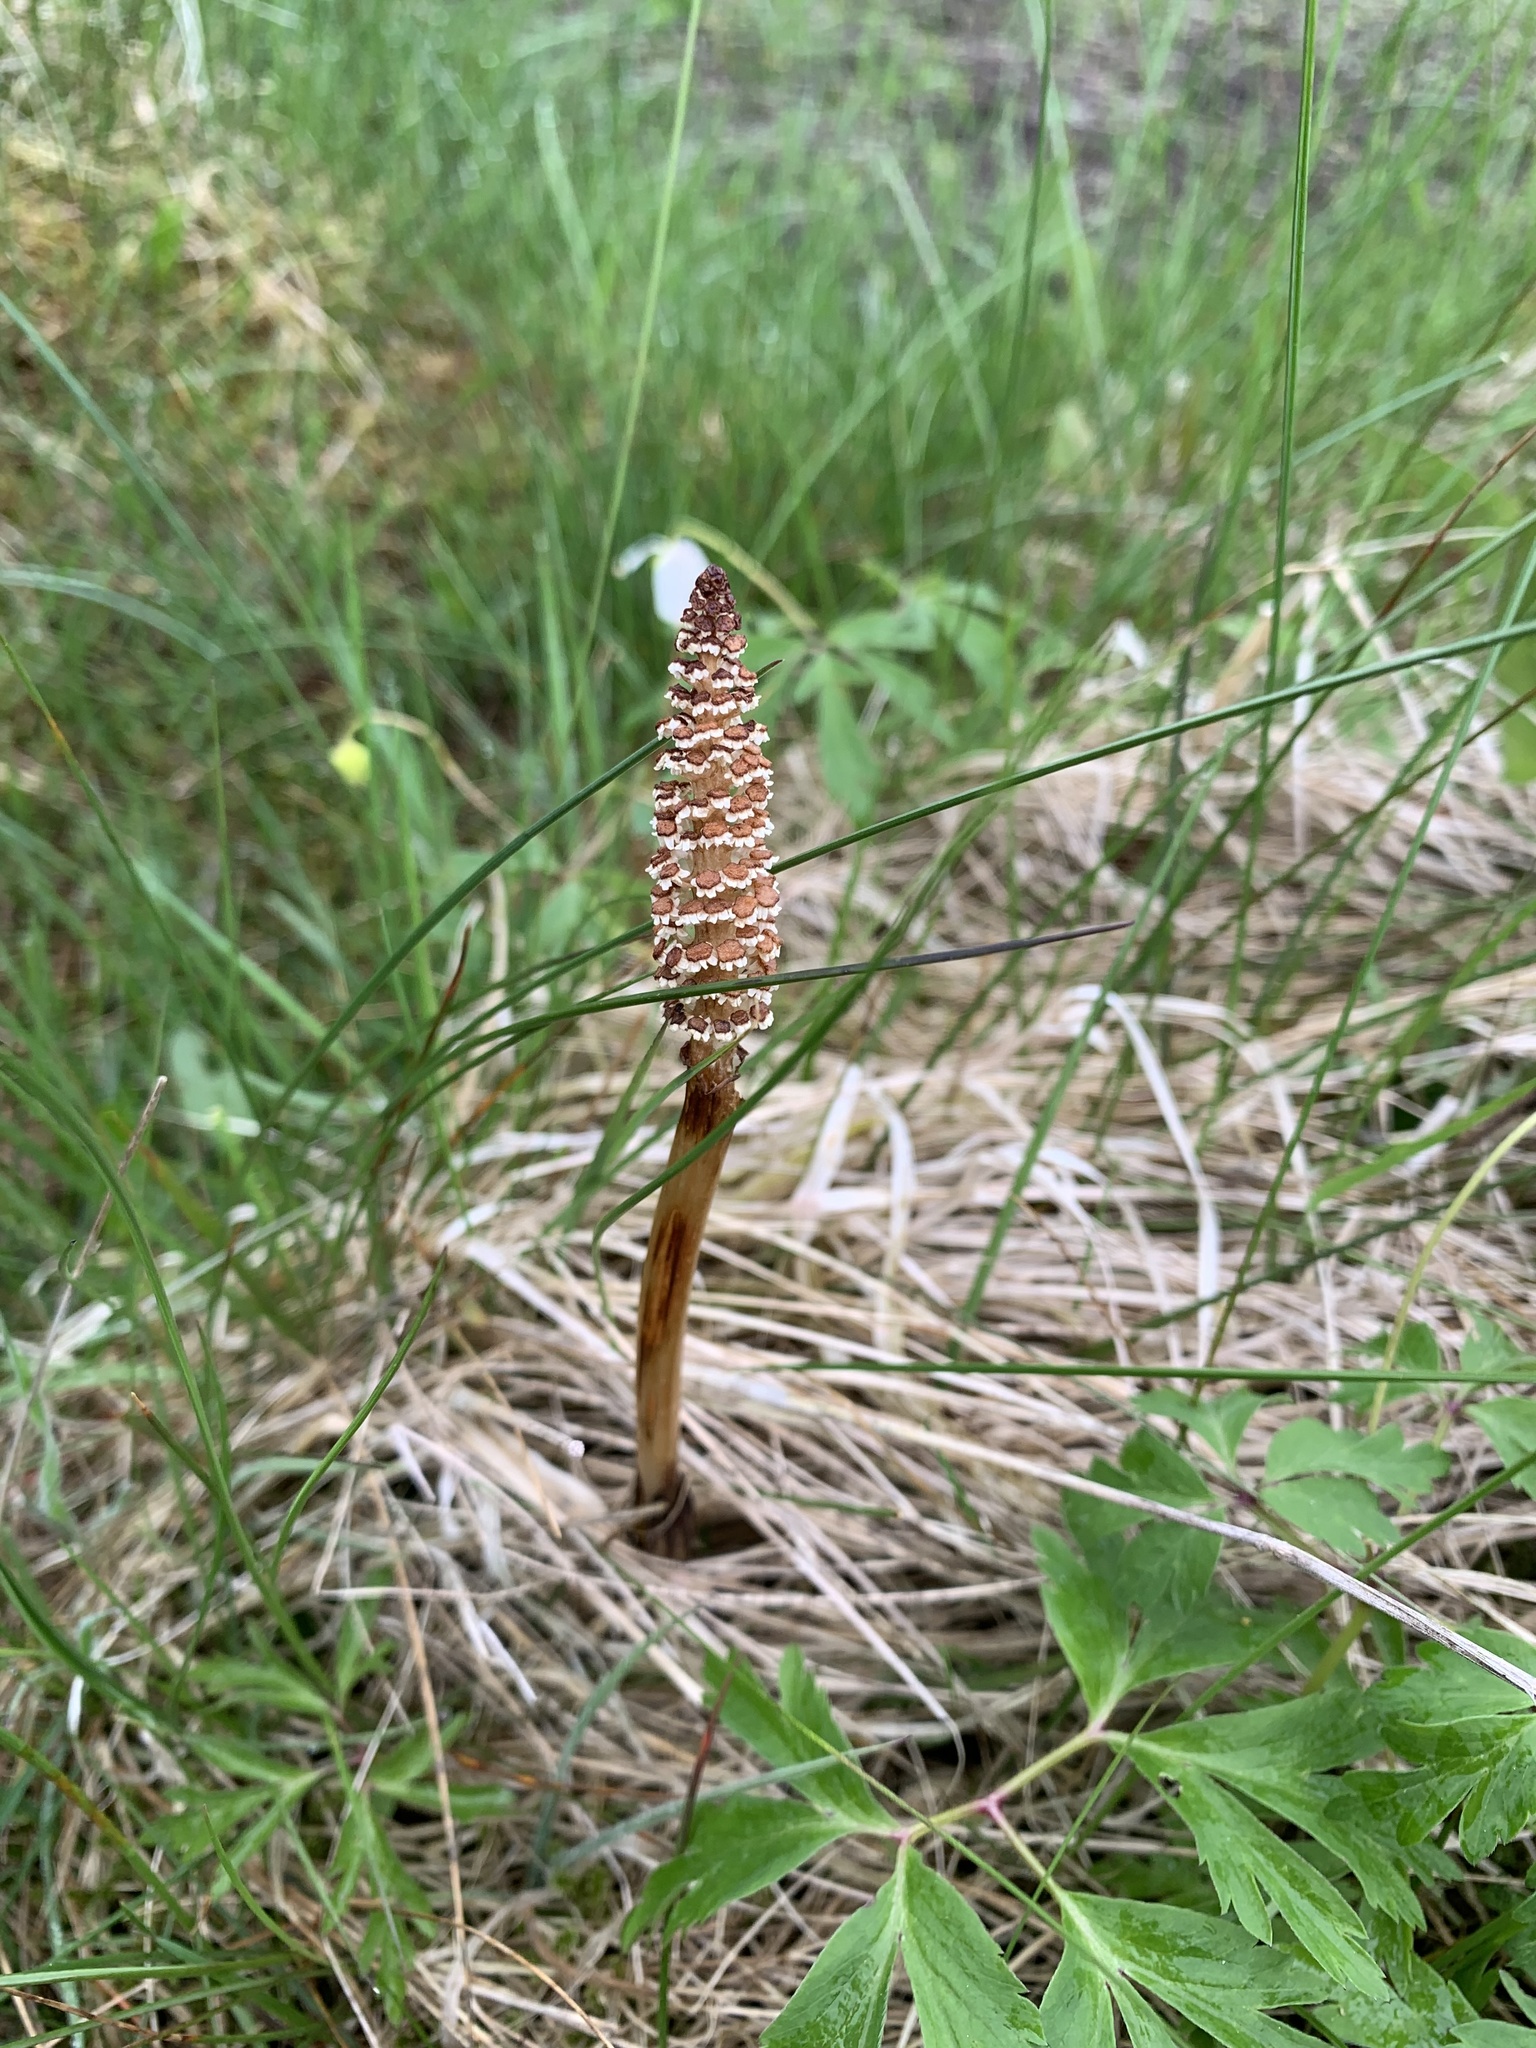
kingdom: Plantae
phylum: Tracheophyta
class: Polypodiopsida
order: Equisetales
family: Equisetaceae
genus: Equisetum
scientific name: Equisetum arvense
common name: Field horsetail
